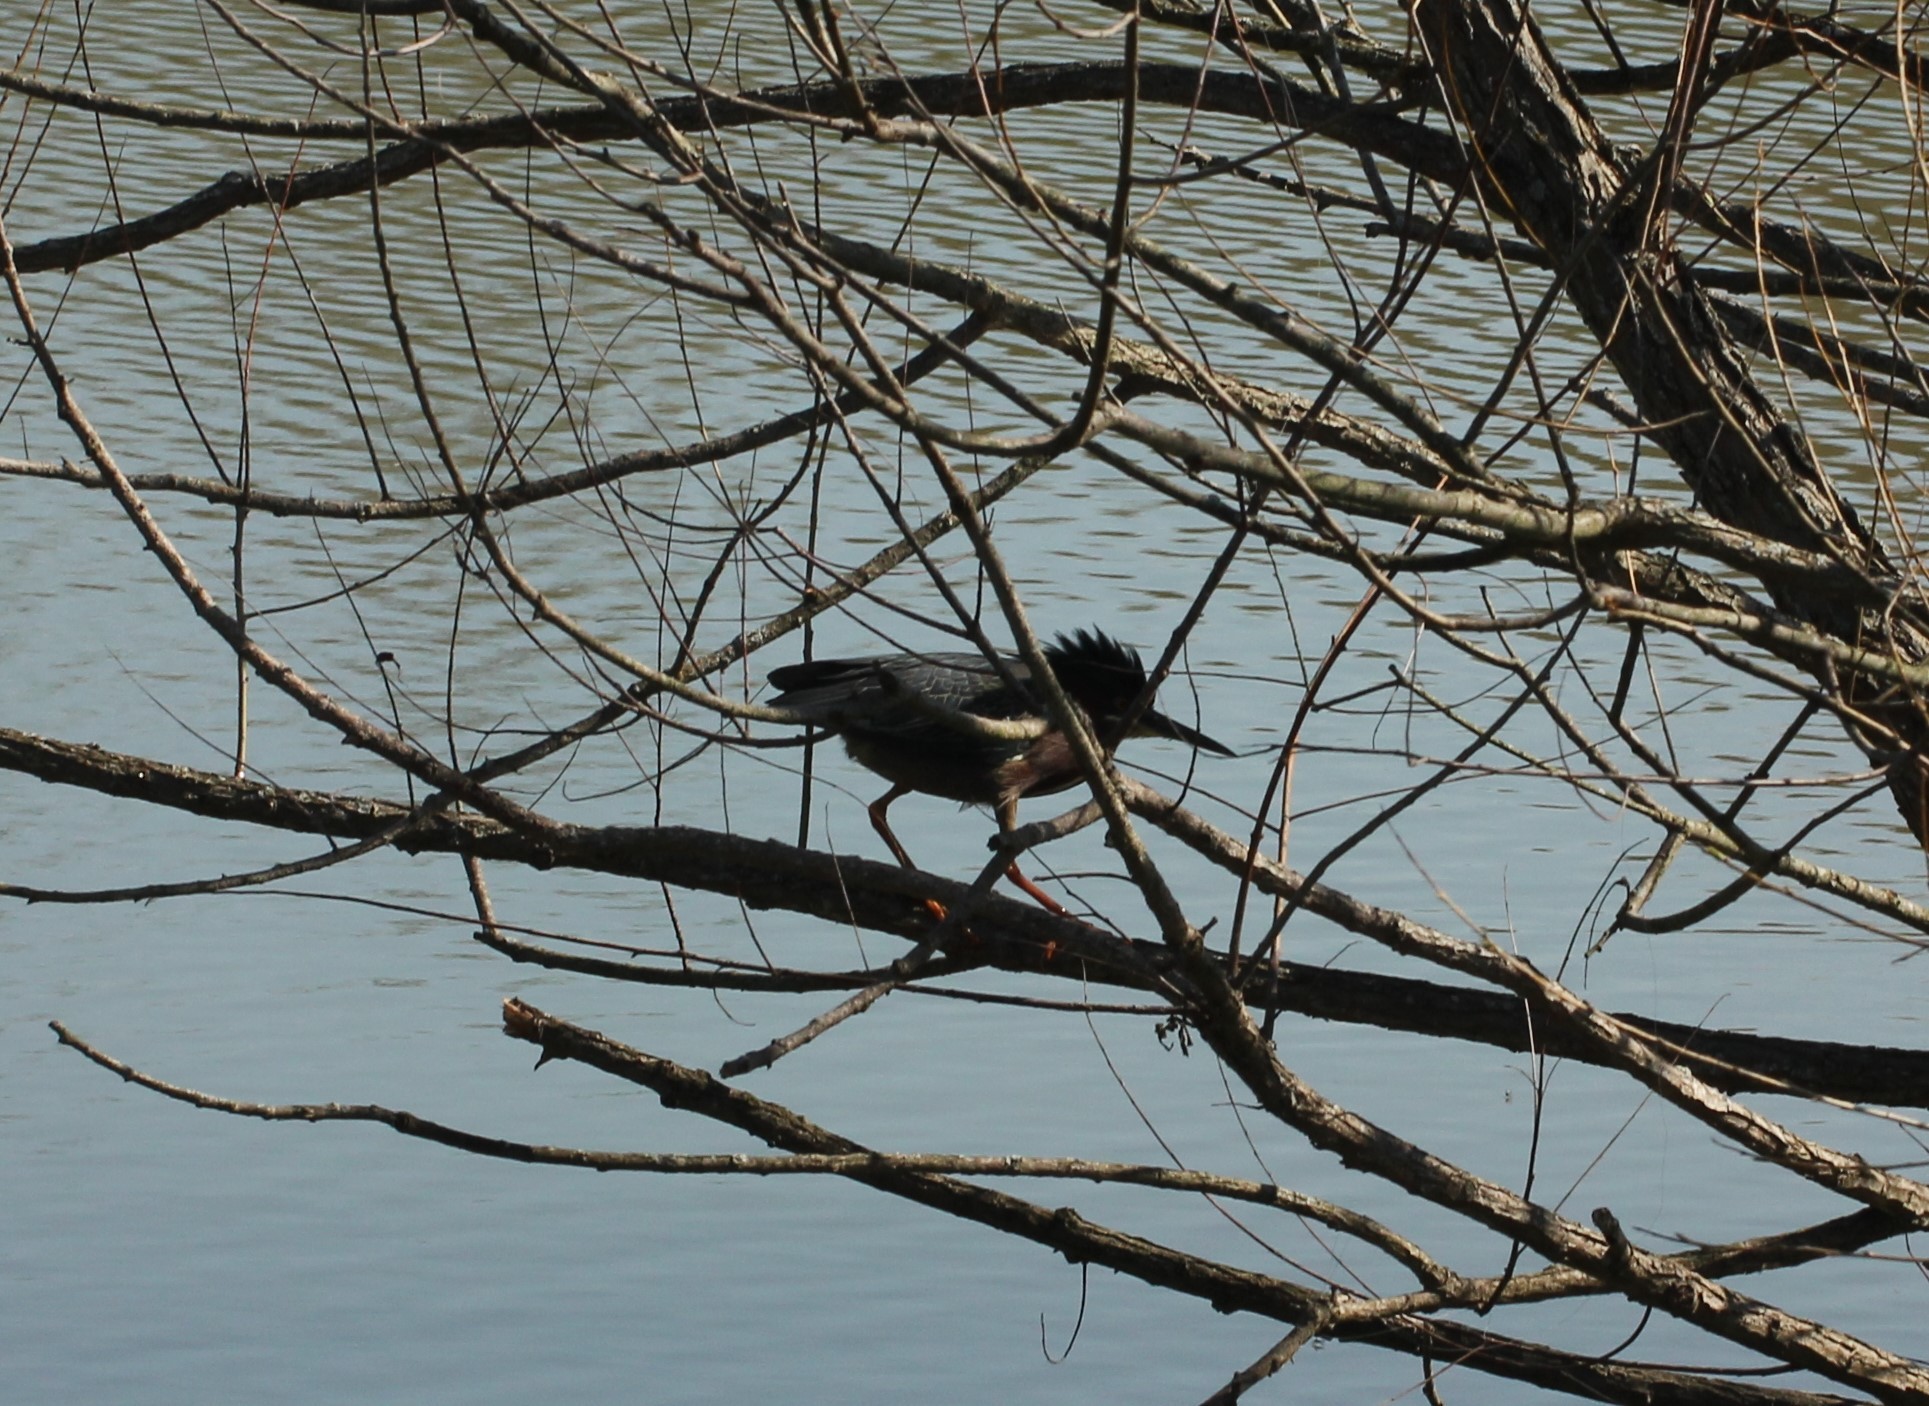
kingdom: Animalia
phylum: Chordata
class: Aves
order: Pelecaniformes
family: Ardeidae
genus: Butorides
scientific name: Butorides virescens
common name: Green heron
